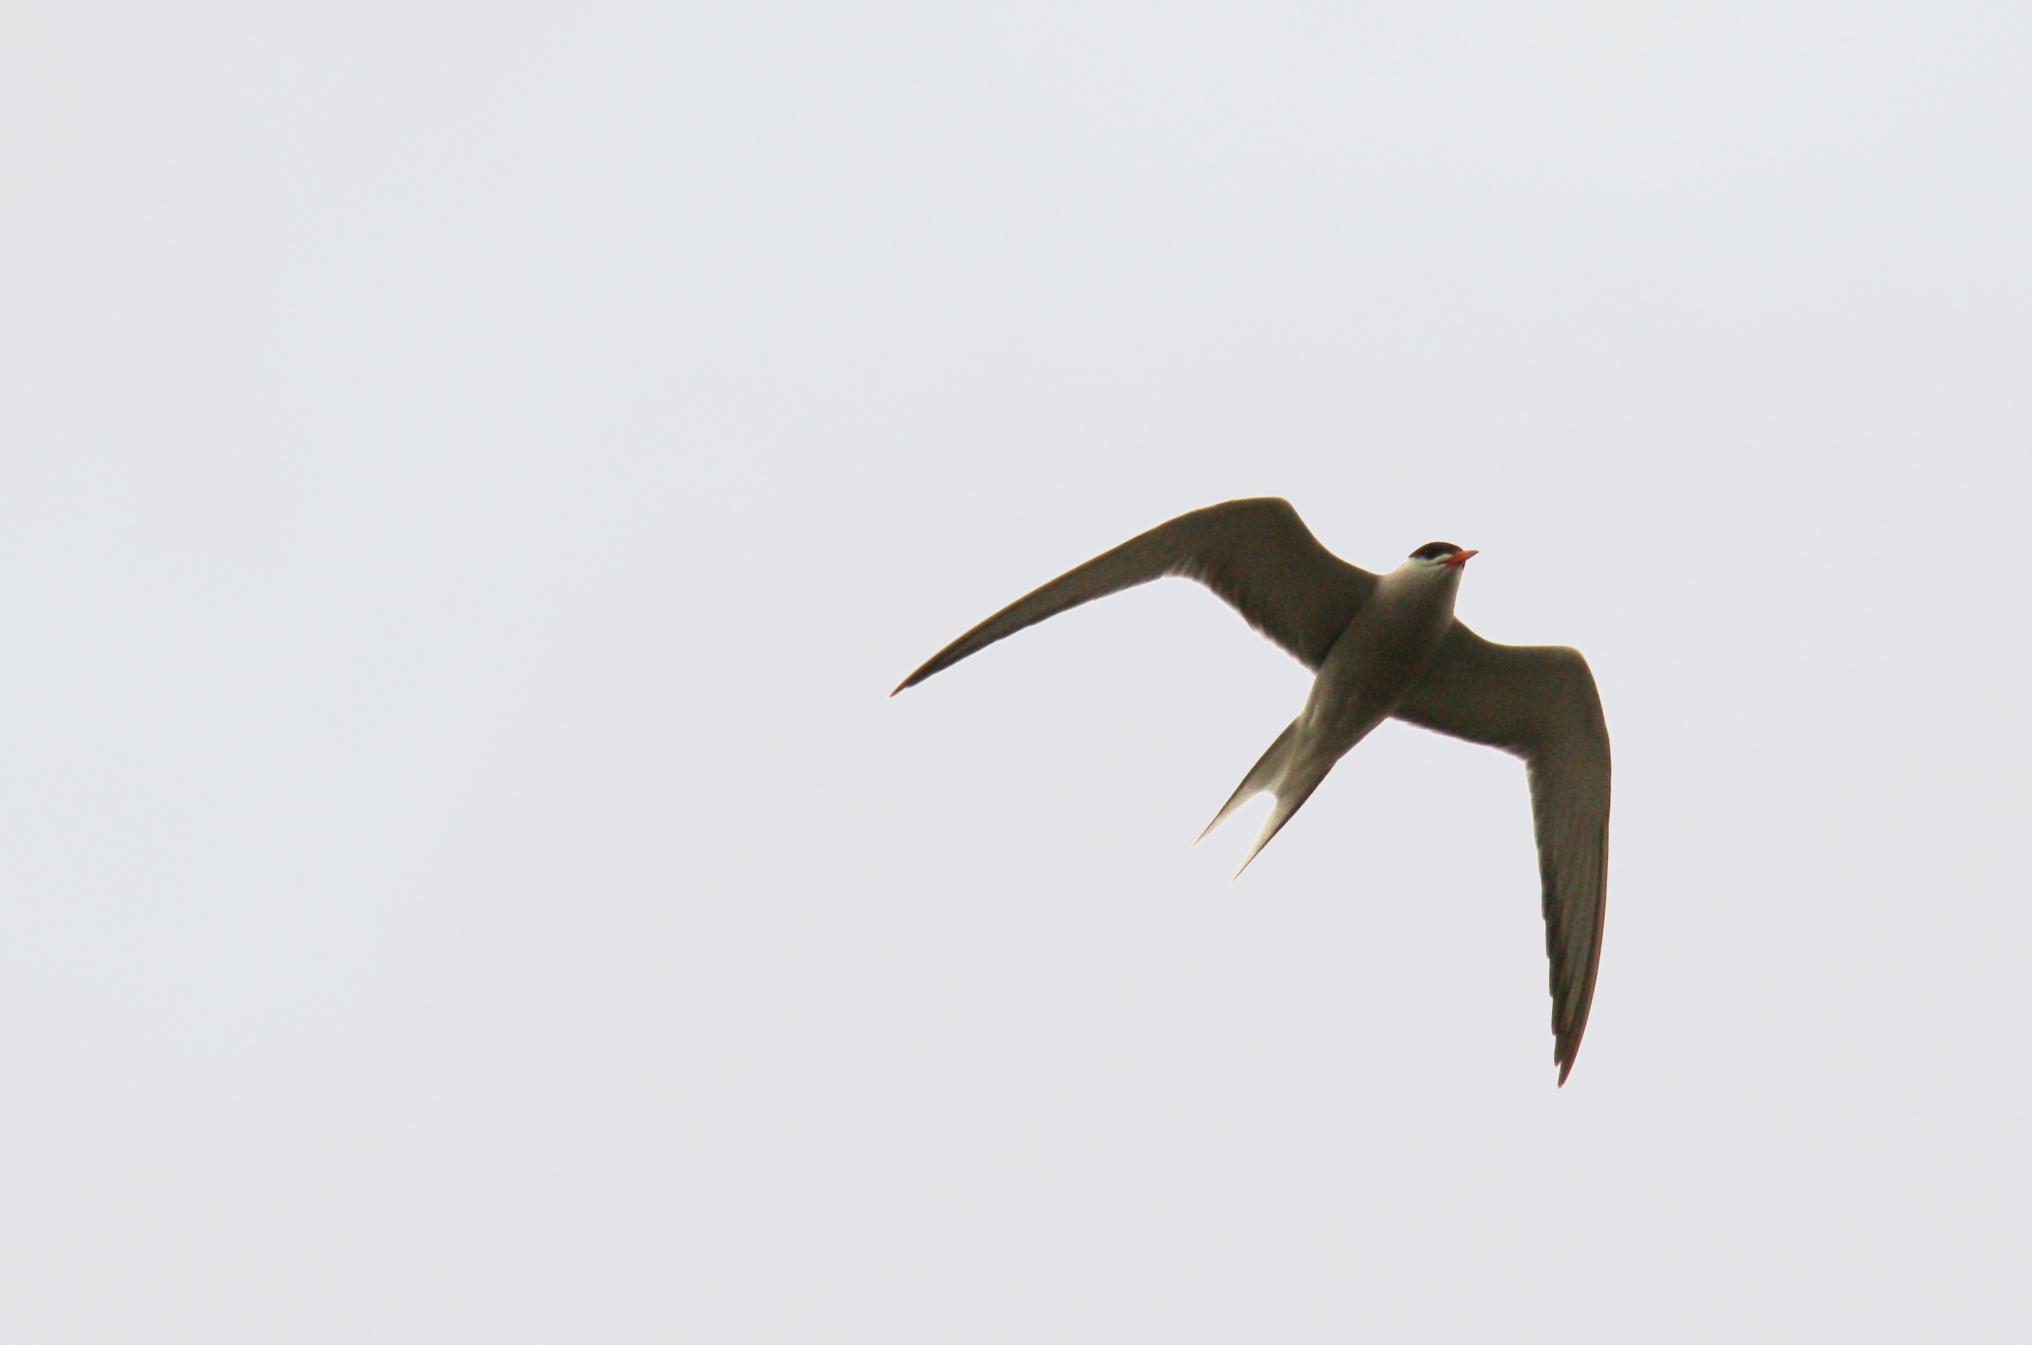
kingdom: Animalia
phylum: Chordata
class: Aves
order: Charadriiformes
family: Laridae
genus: Sterna
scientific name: Sterna hirundo
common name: Common tern
